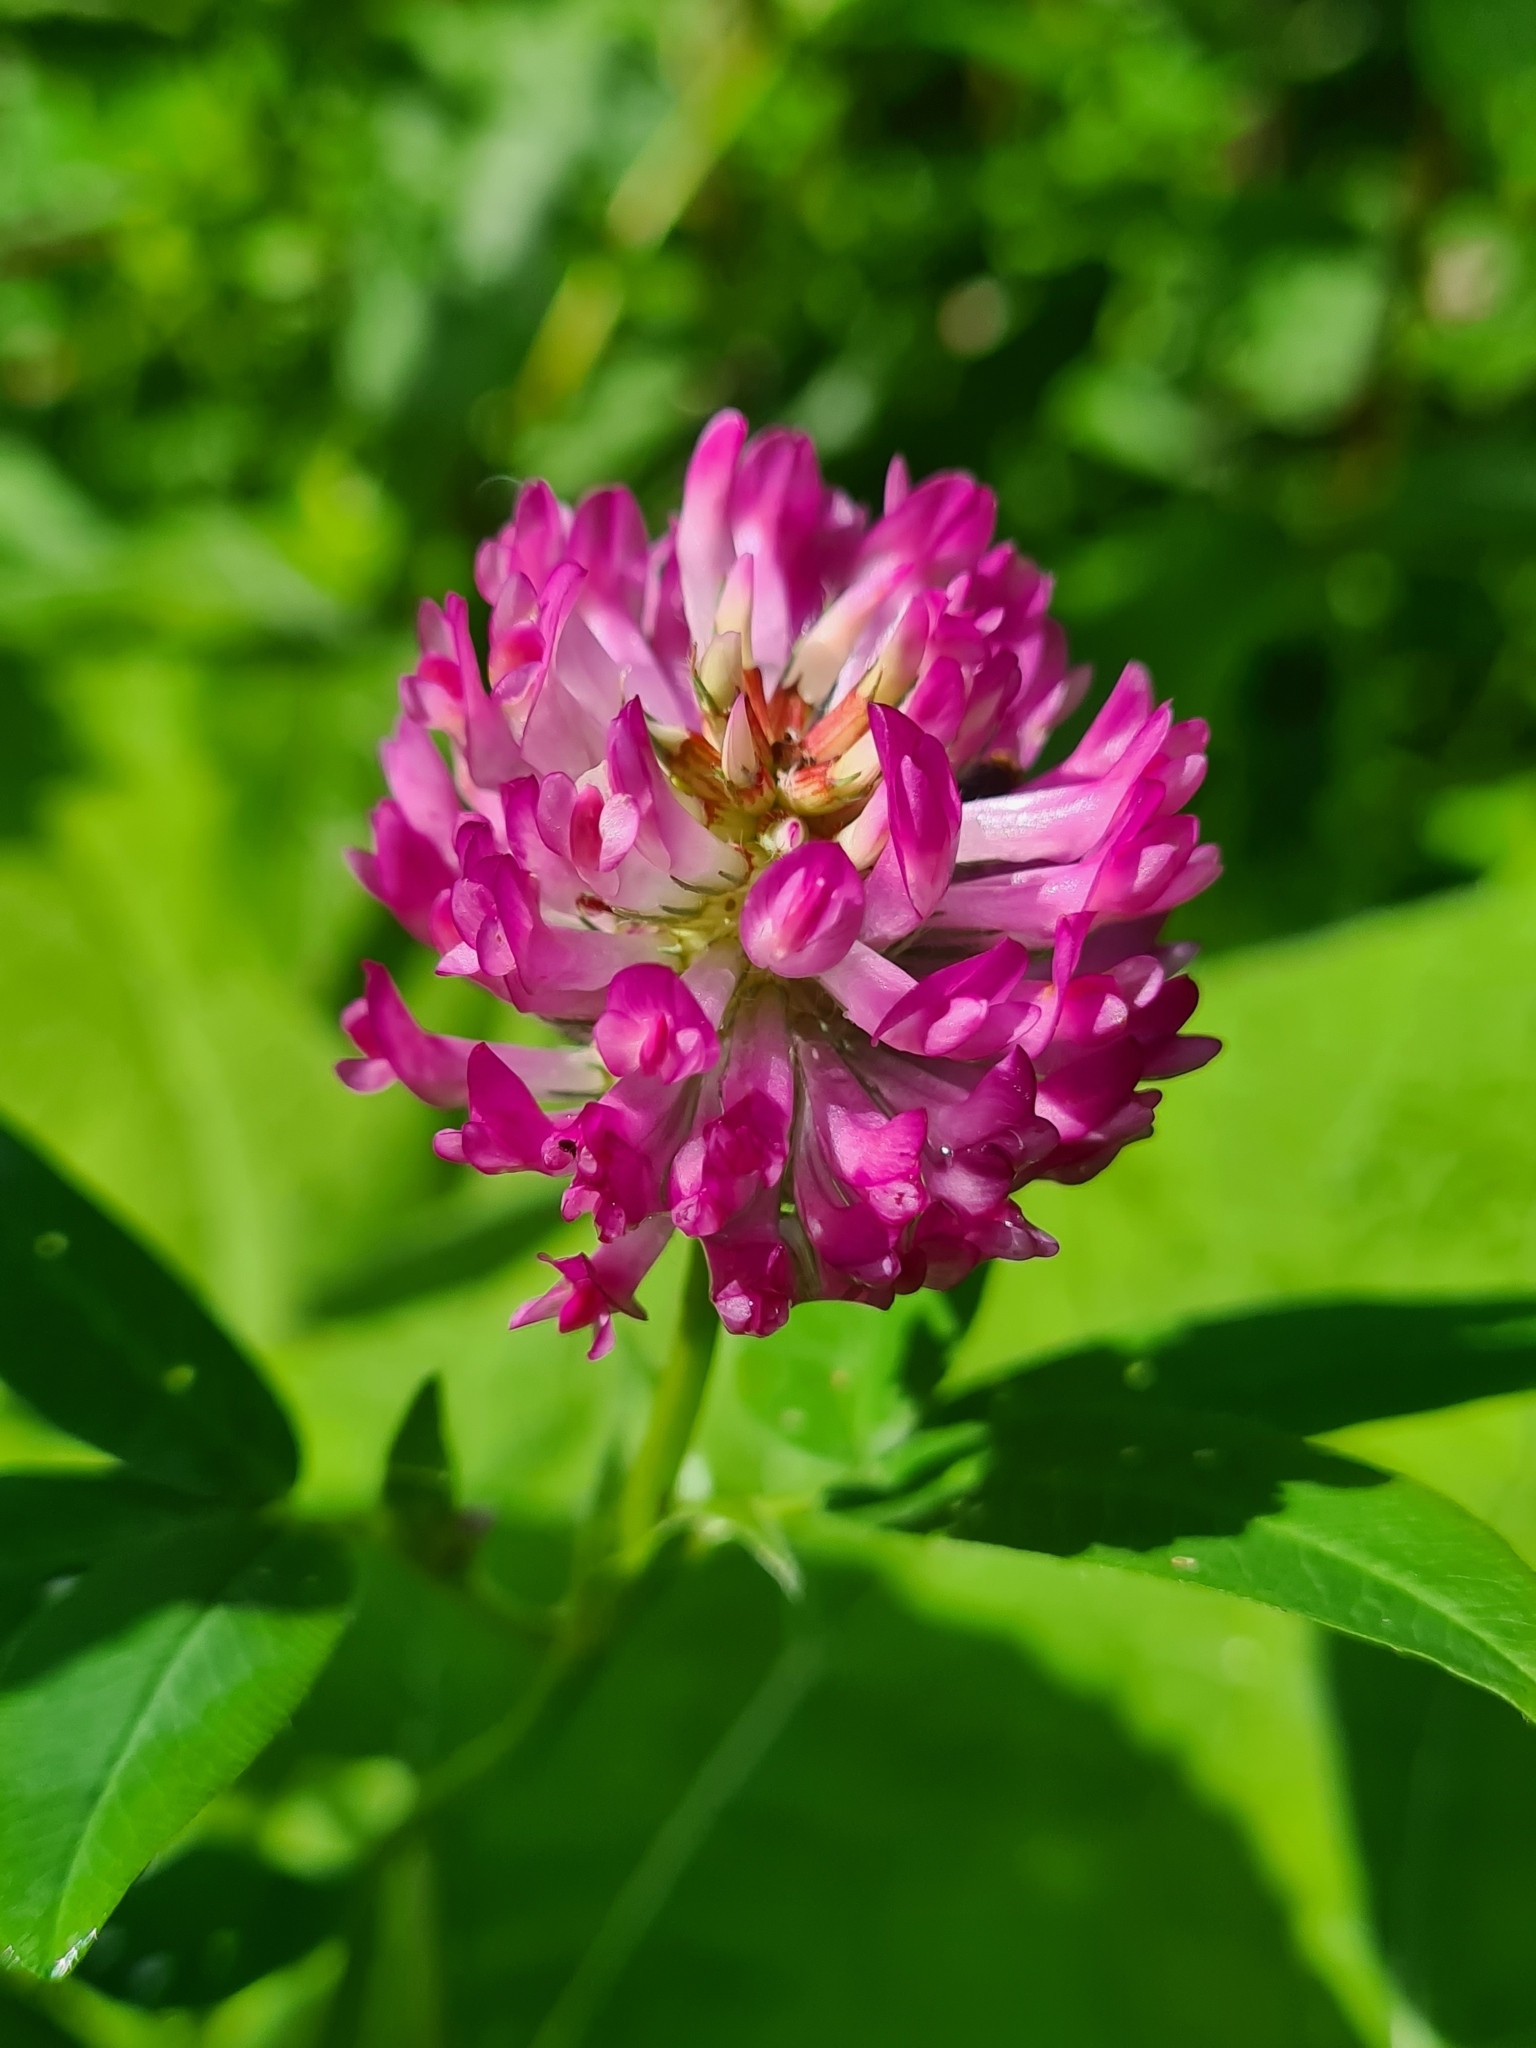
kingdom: Plantae
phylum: Tracheophyta
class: Magnoliopsida
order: Fabales
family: Fabaceae
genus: Trifolium
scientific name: Trifolium medium
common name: Zigzag clover
